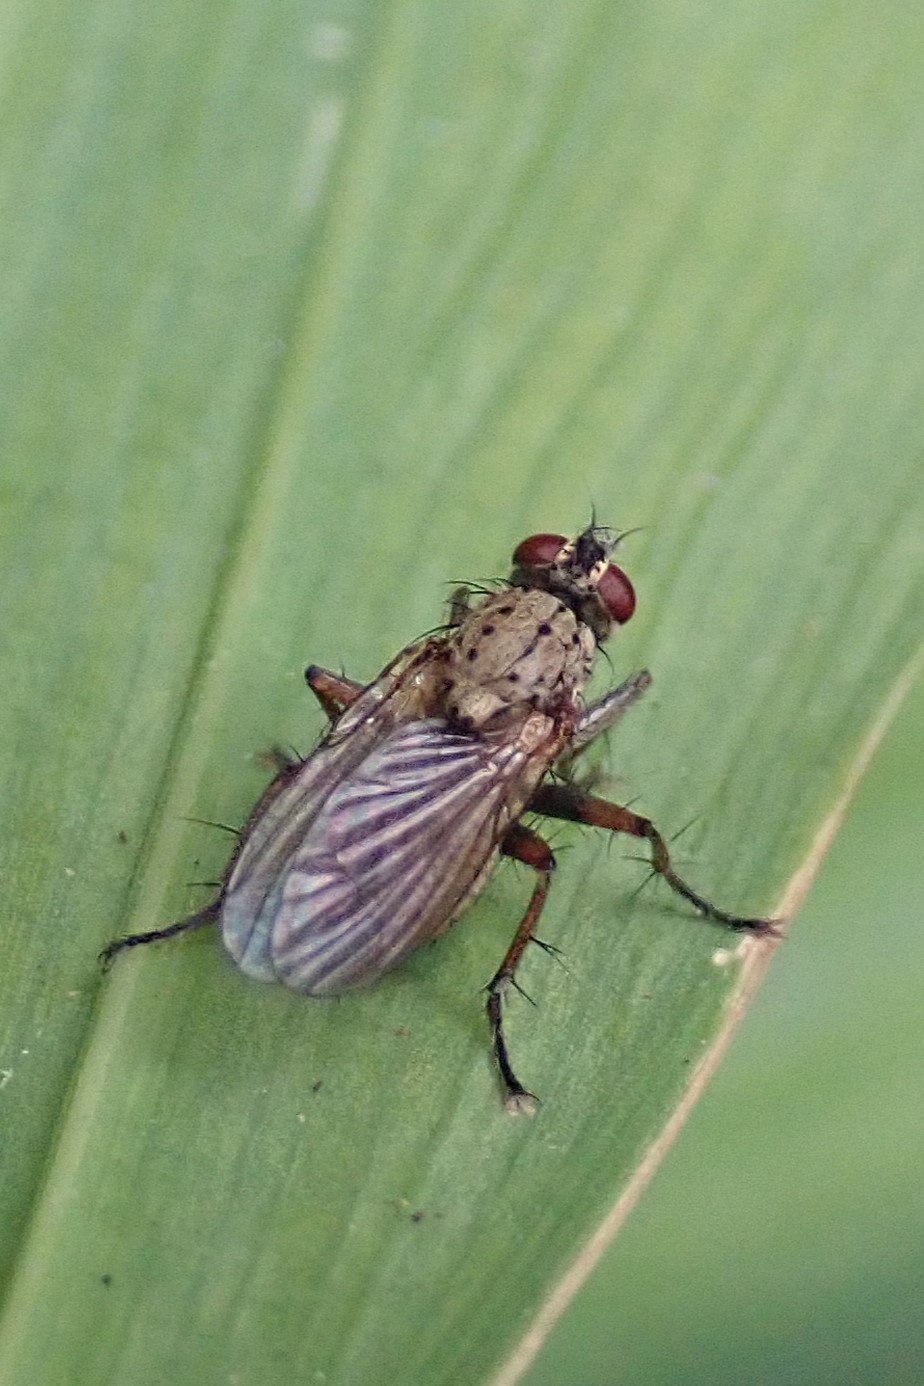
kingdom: Animalia
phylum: Arthropoda
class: Insecta
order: Diptera
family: Muscidae
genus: Coenosia
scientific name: Coenosia tigrina
